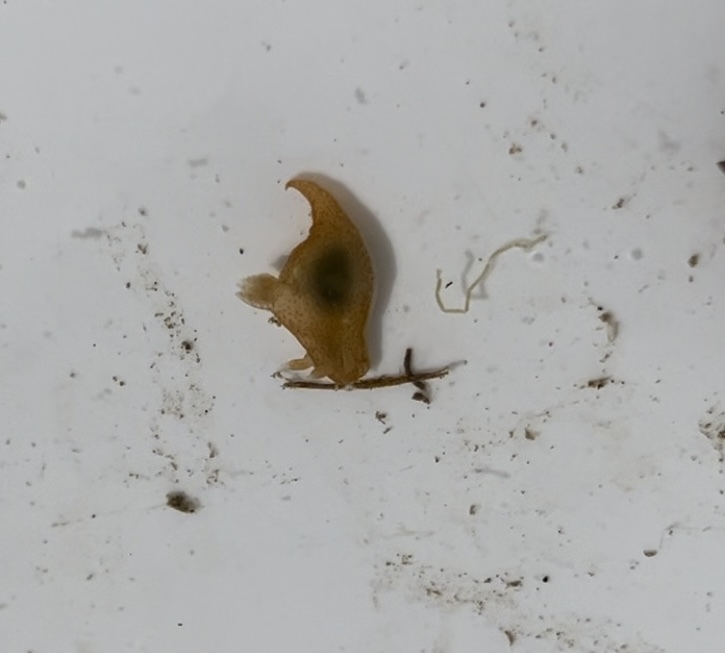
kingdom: Animalia
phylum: Mollusca
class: Gastropoda
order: Nudibranchia
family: Polyceridae
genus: Gymnodoris
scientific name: Gymnodoris arnoldi
